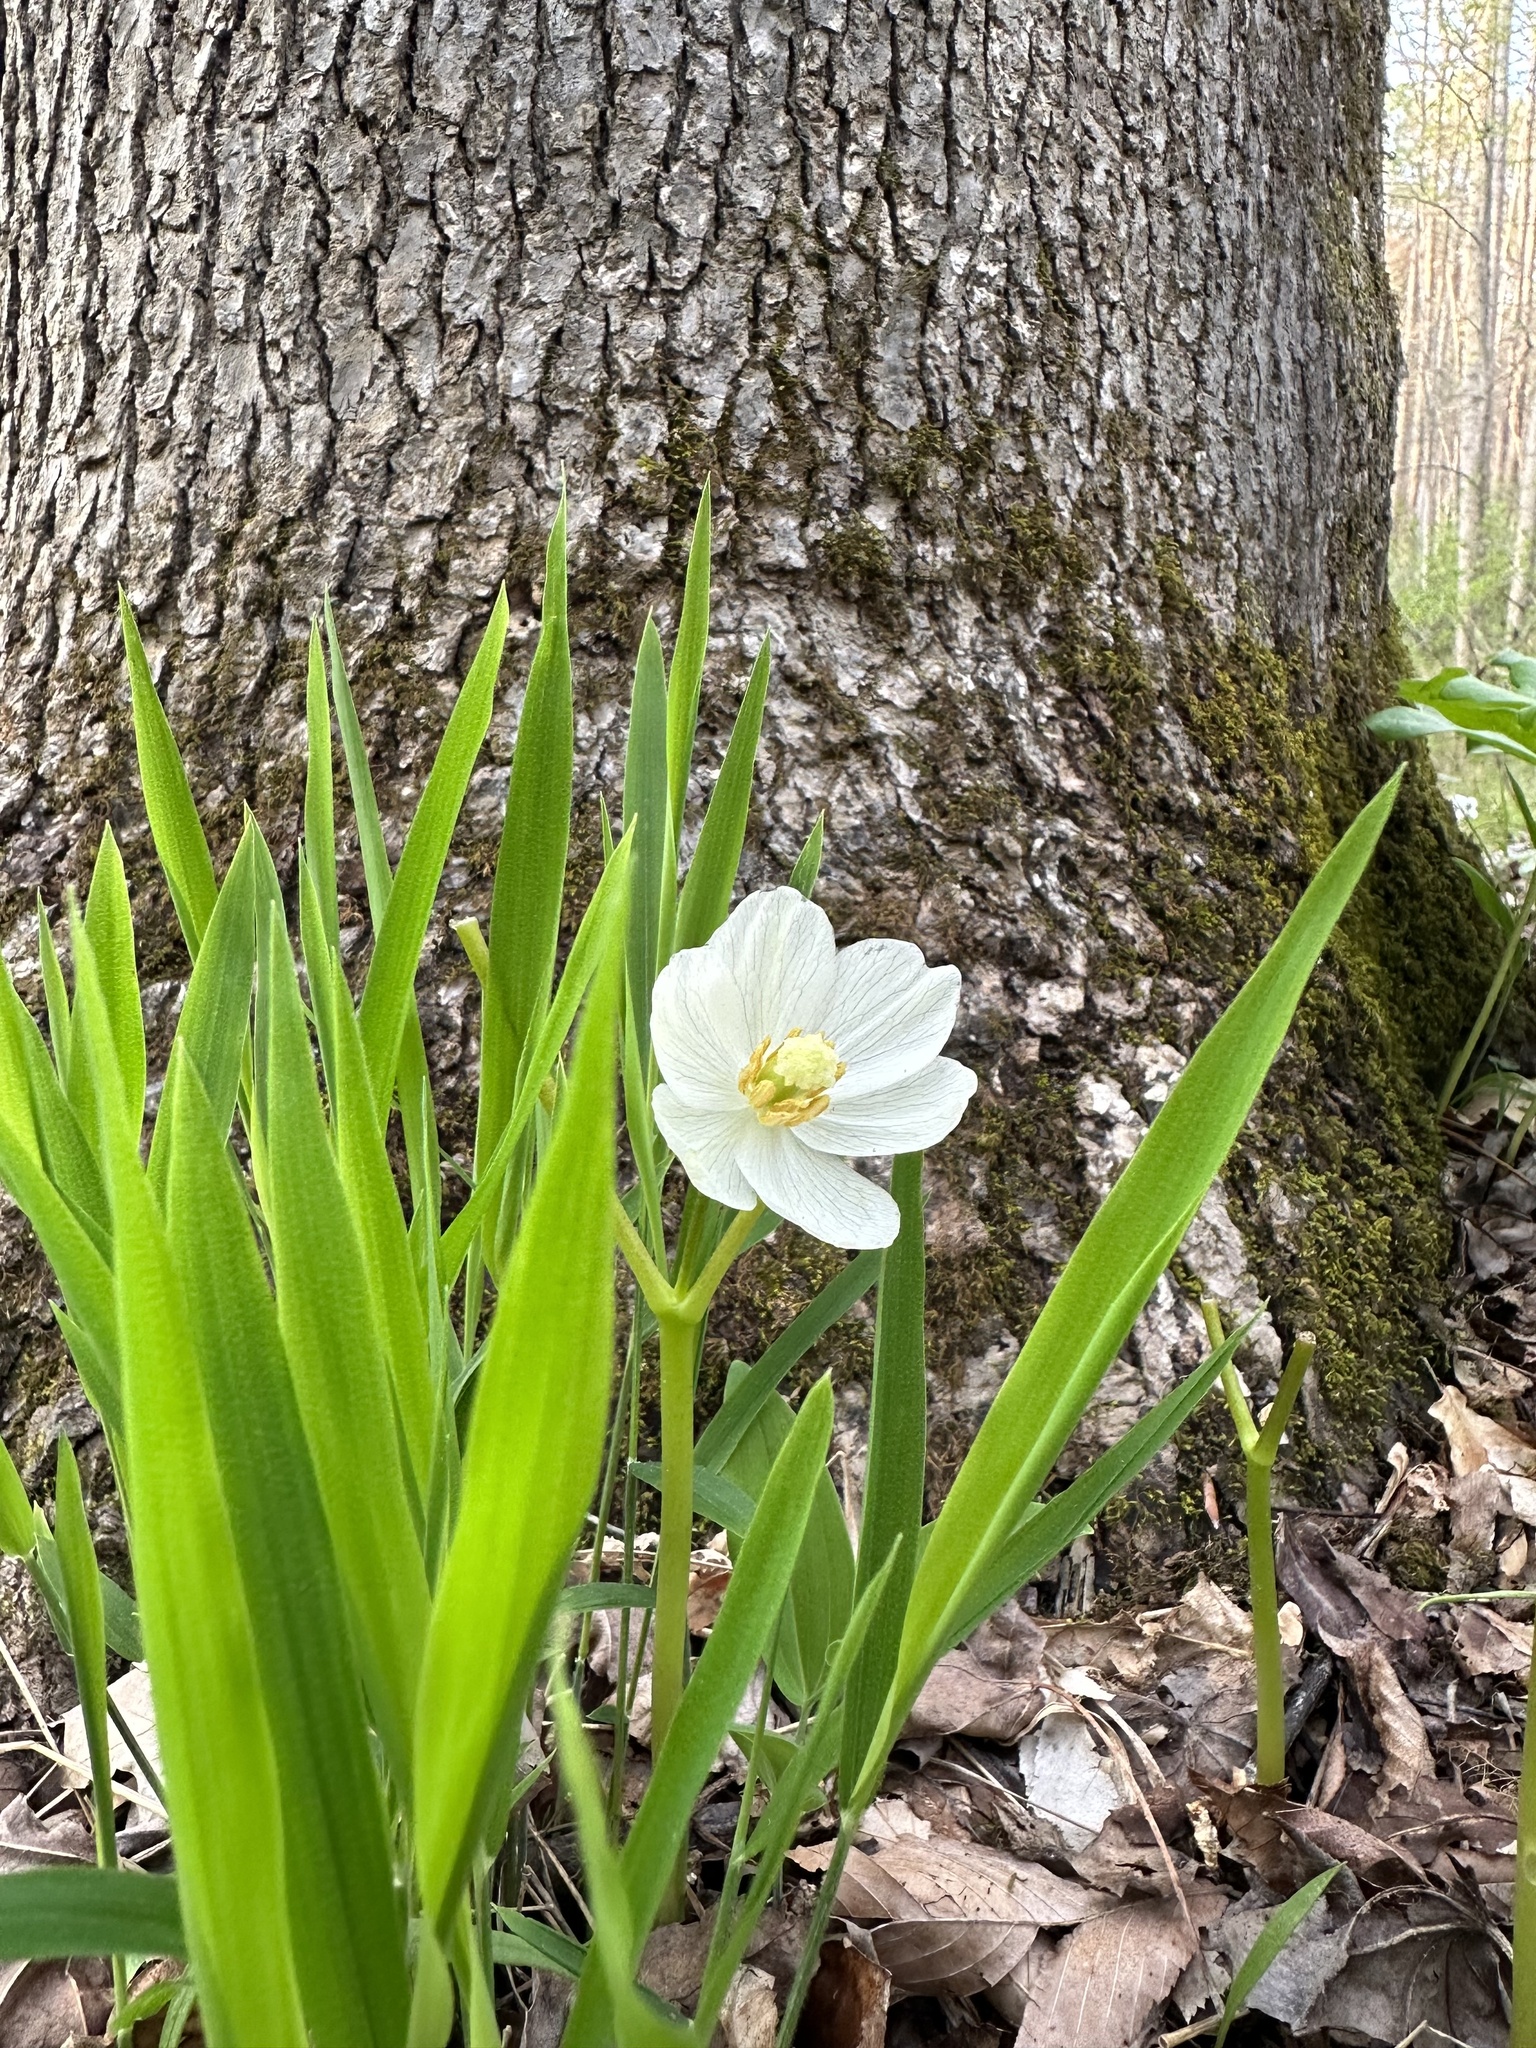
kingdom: Plantae
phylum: Tracheophyta
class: Magnoliopsida
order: Ranunculales
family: Berberidaceae
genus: Podophyllum
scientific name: Podophyllum peltatum
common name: Wild mandrake
